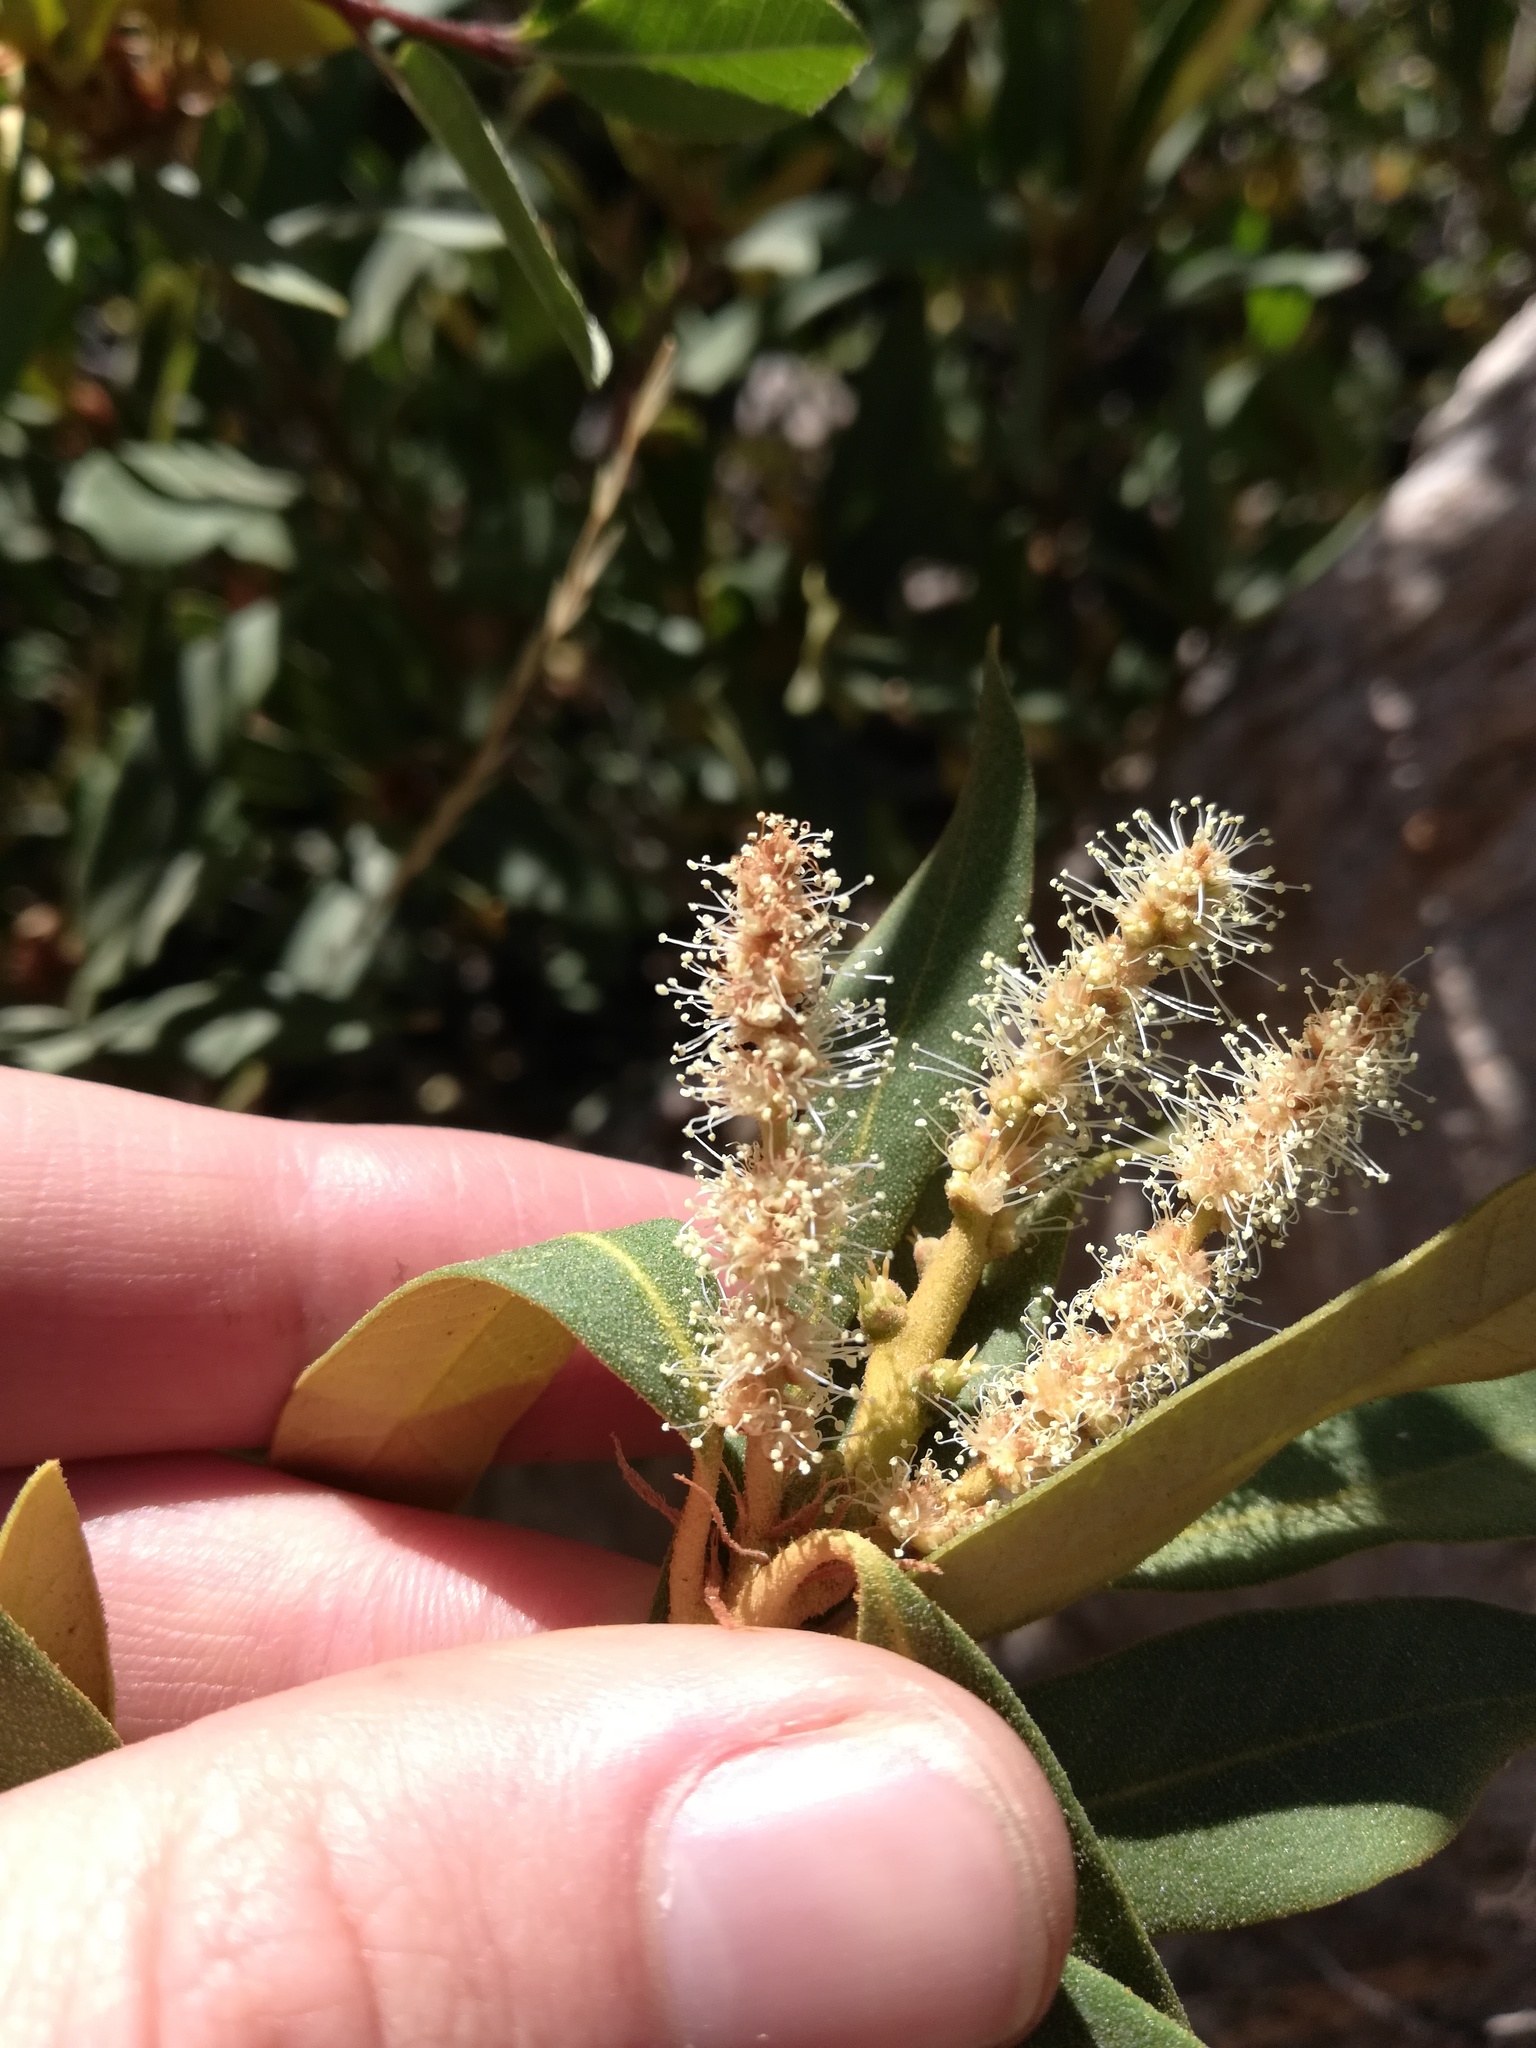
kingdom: Plantae
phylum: Tracheophyta
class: Magnoliopsida
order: Fagales
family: Fagaceae
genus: Chrysolepis
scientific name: Chrysolepis sempervirens
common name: Bush chinquapin
